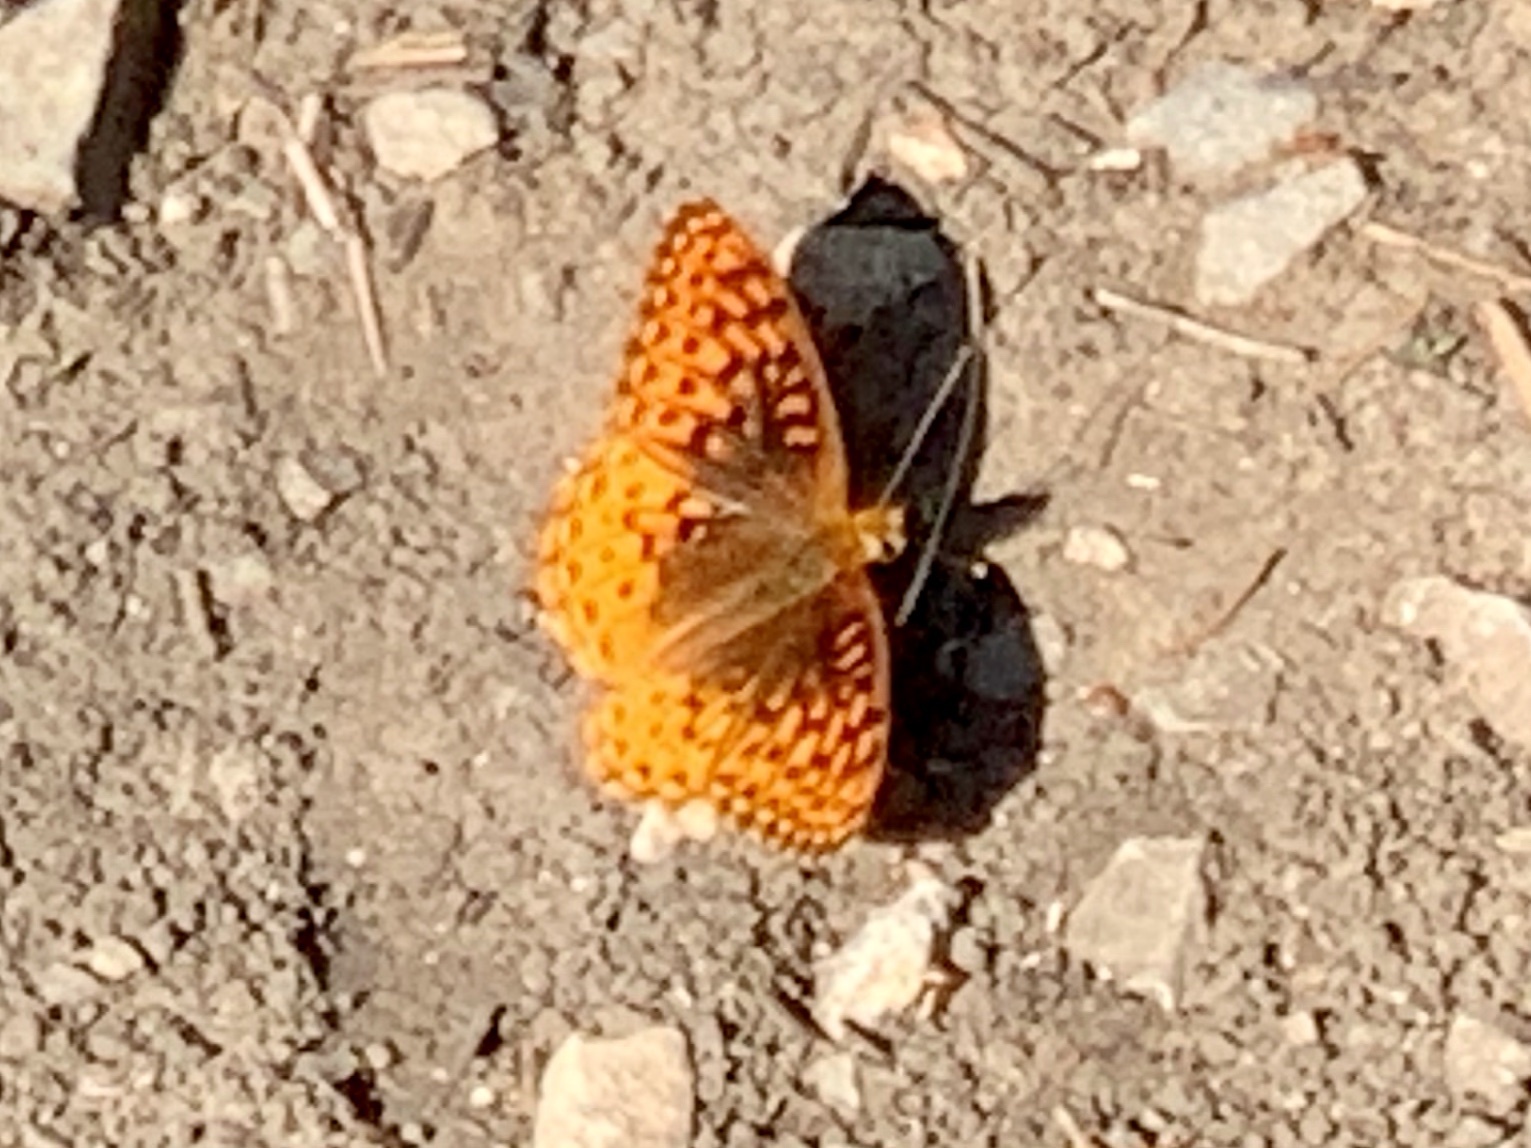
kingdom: Animalia
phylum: Arthropoda
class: Insecta
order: Lepidoptera
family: Nymphalidae
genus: Speyeria
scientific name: Speyeria atlantis
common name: Atlantis fritillary
